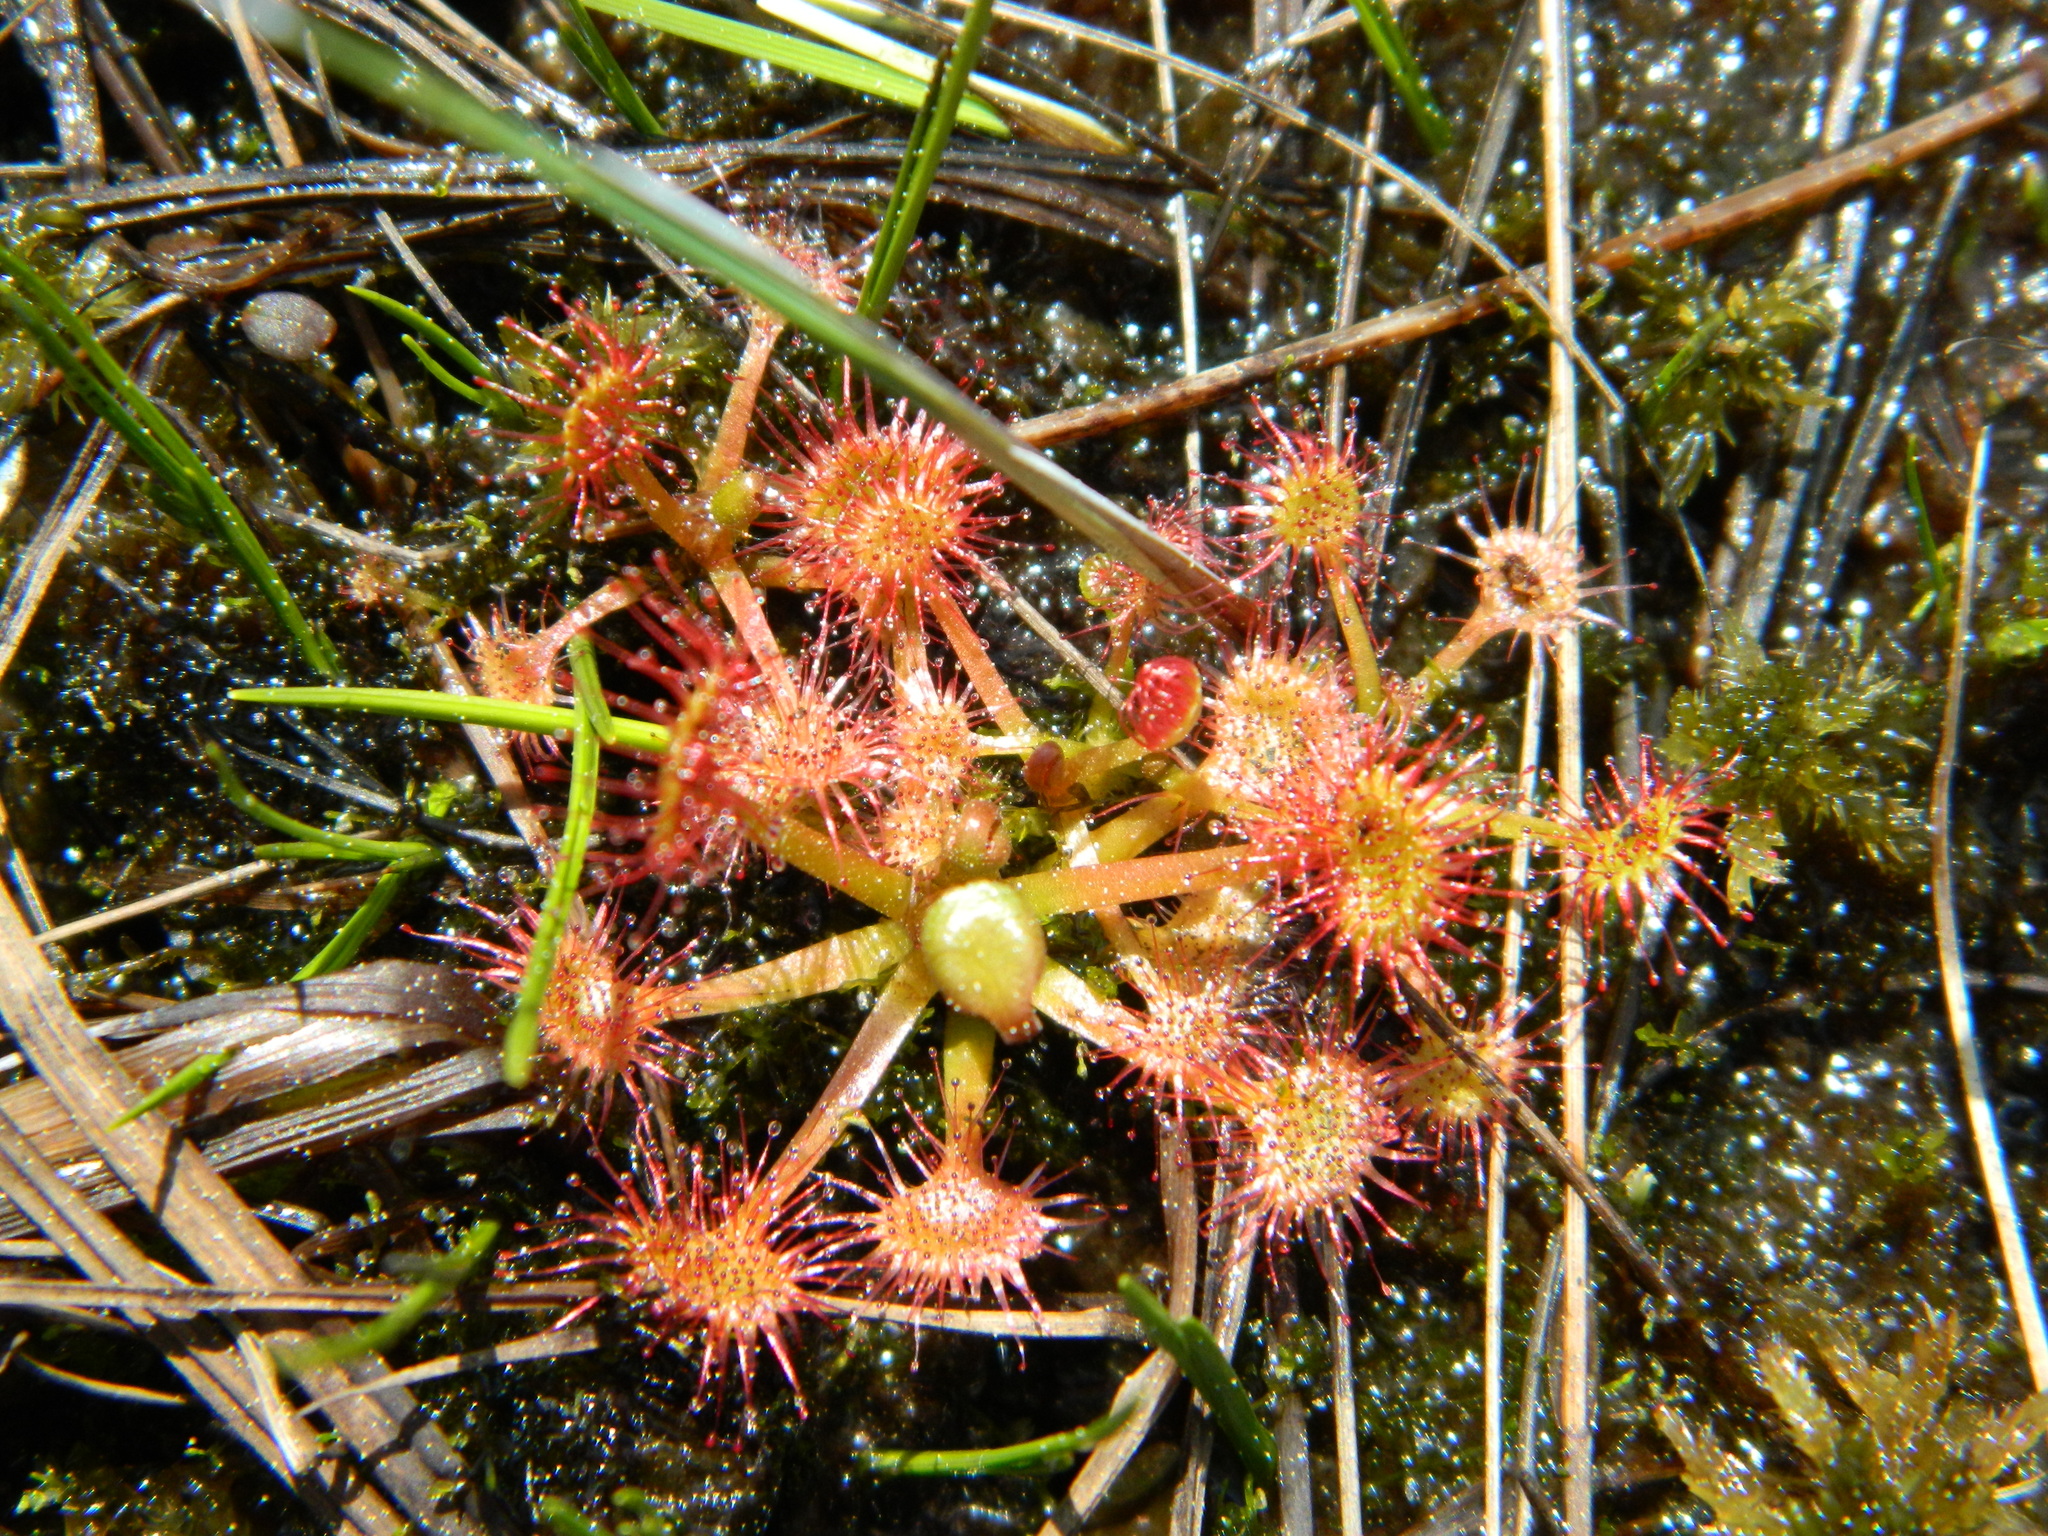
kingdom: Plantae
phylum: Tracheophyta
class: Magnoliopsida
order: Caryophyllales
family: Droseraceae
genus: Drosera
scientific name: Drosera rotundifolia
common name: Round-leaved sundew
